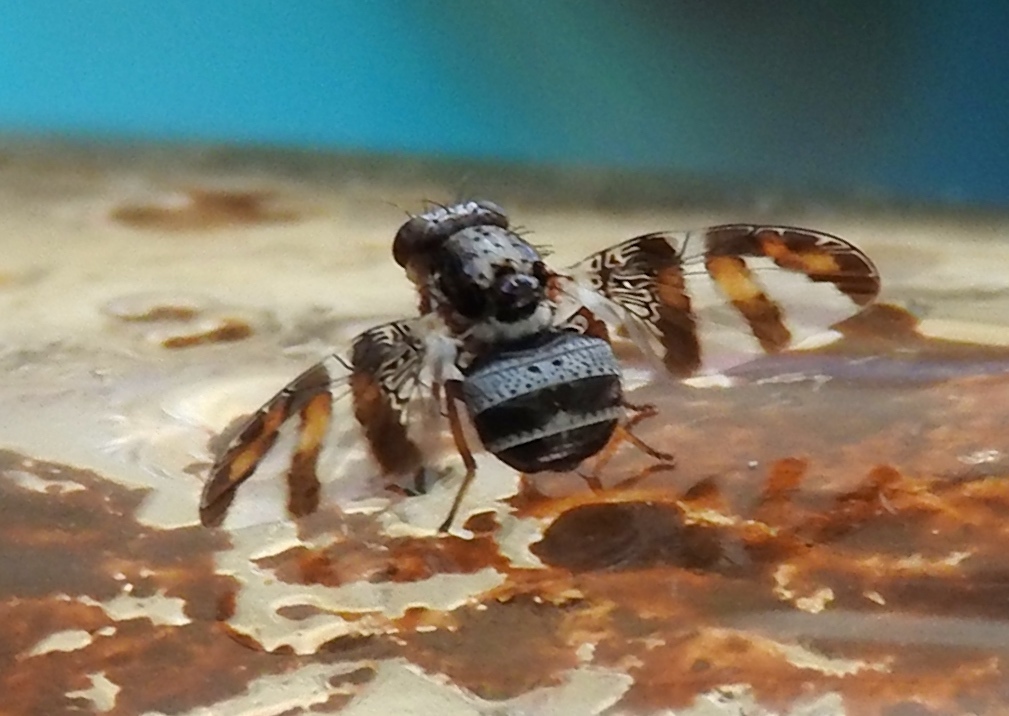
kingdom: Animalia
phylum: Arthropoda
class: Insecta
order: Diptera
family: Ulidiidae
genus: Dyscrasis
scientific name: Dyscrasis hendeli
